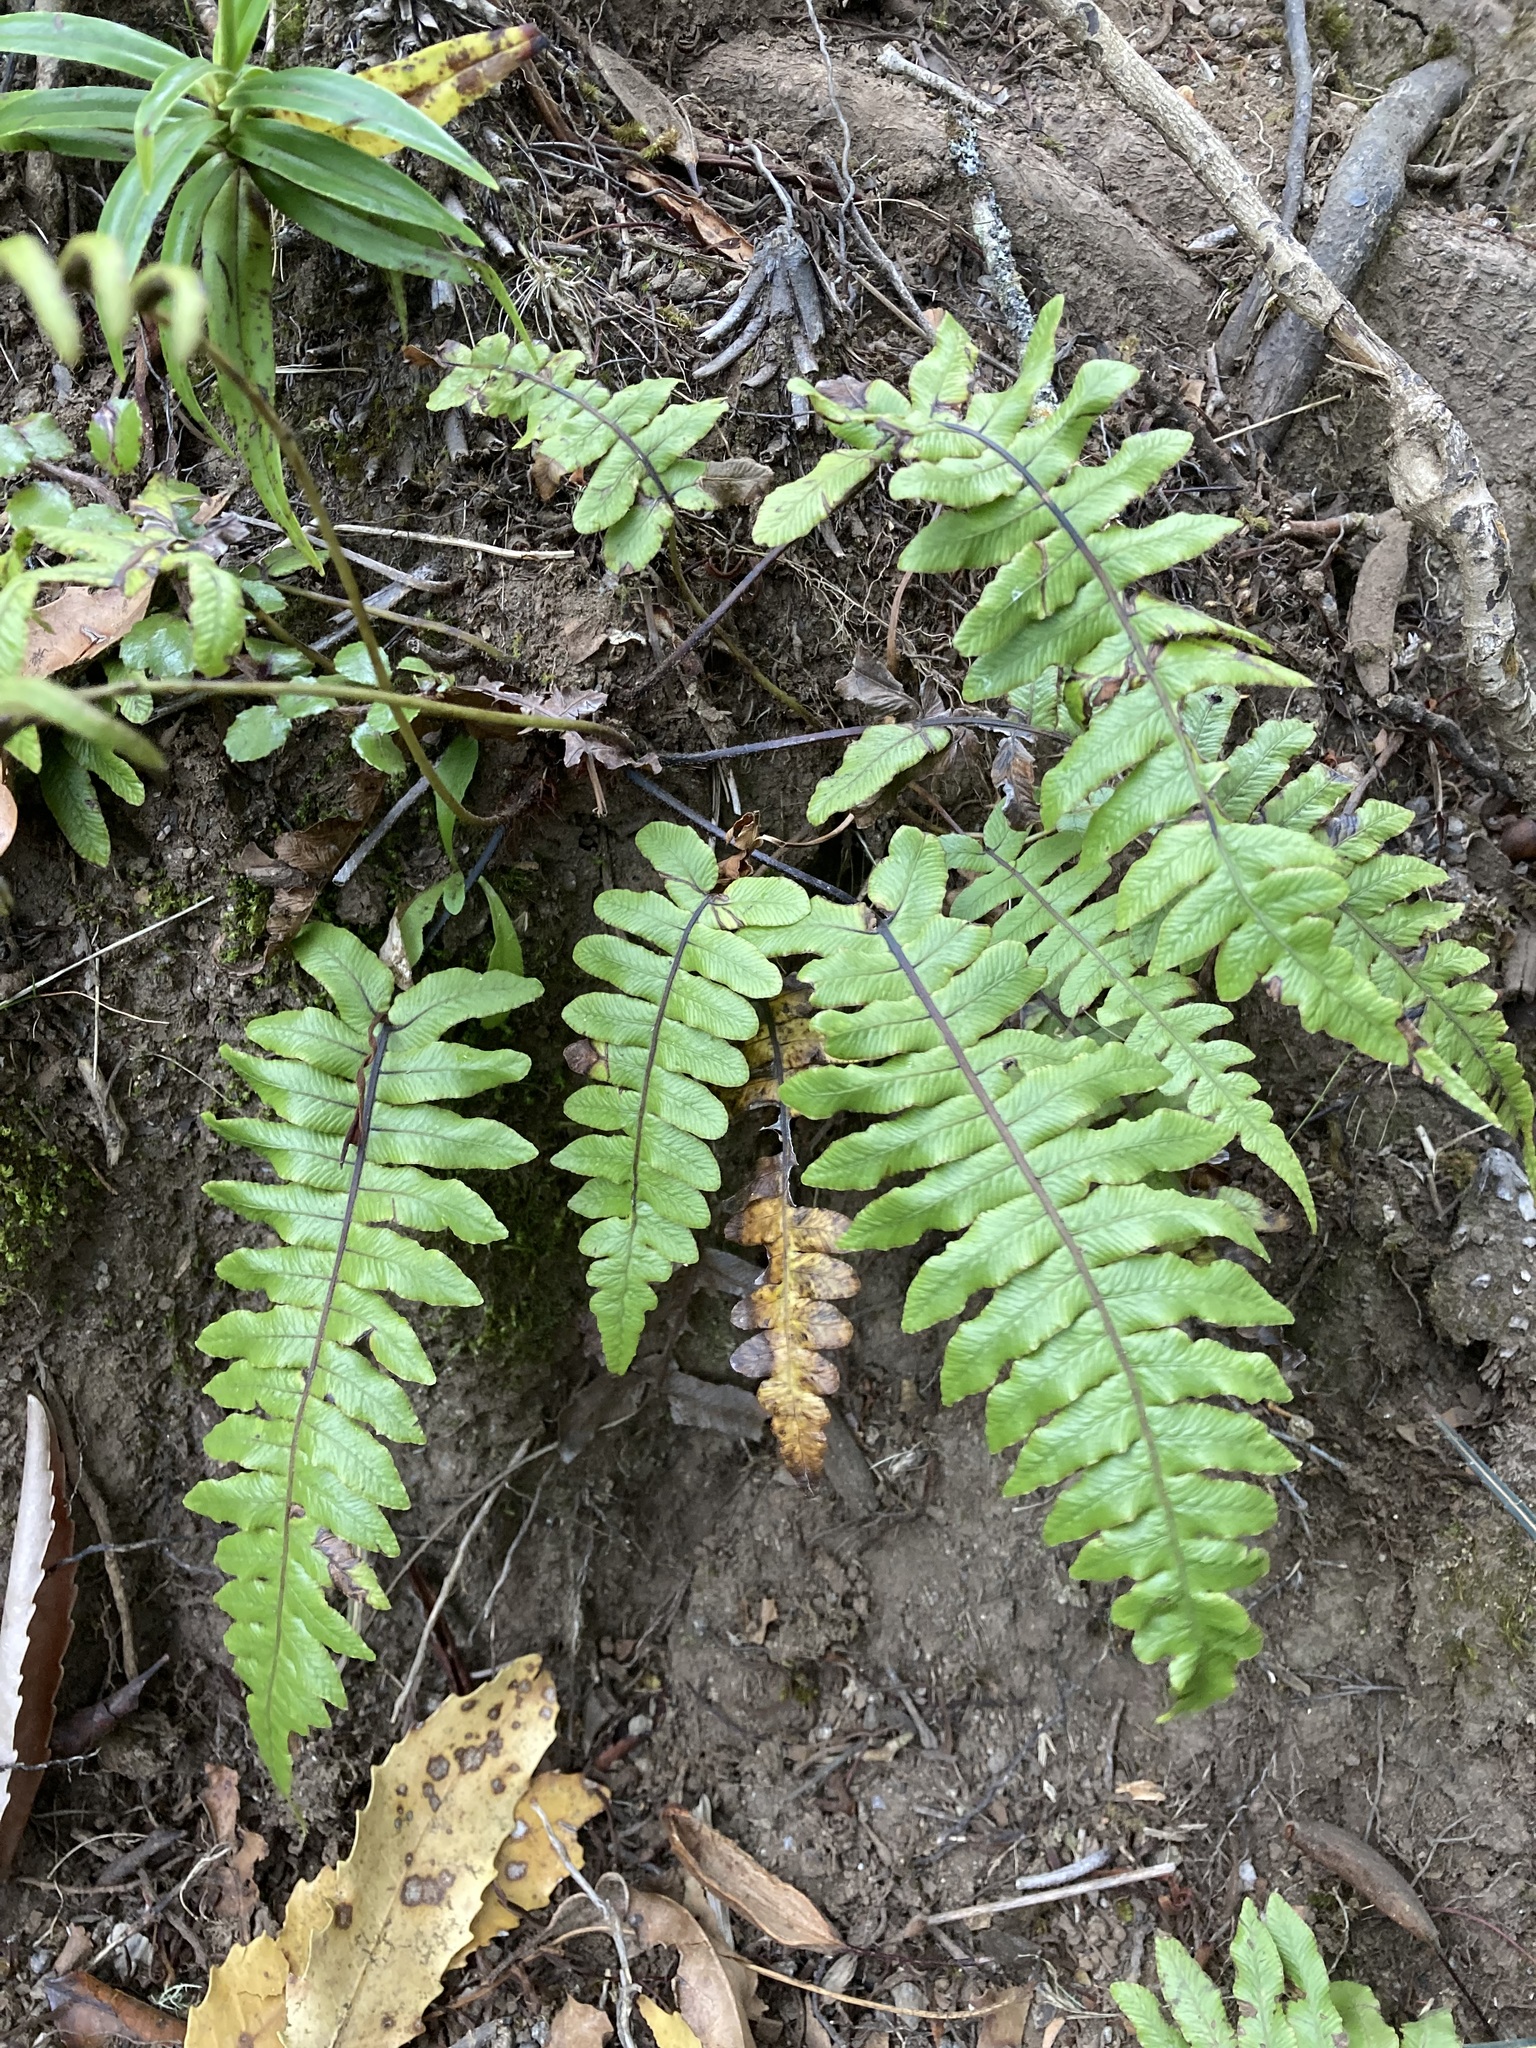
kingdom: Plantae
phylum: Tracheophyta
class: Polypodiopsida
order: Polypodiales
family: Blechnaceae
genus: Cranfillia
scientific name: Cranfillia deltoides
